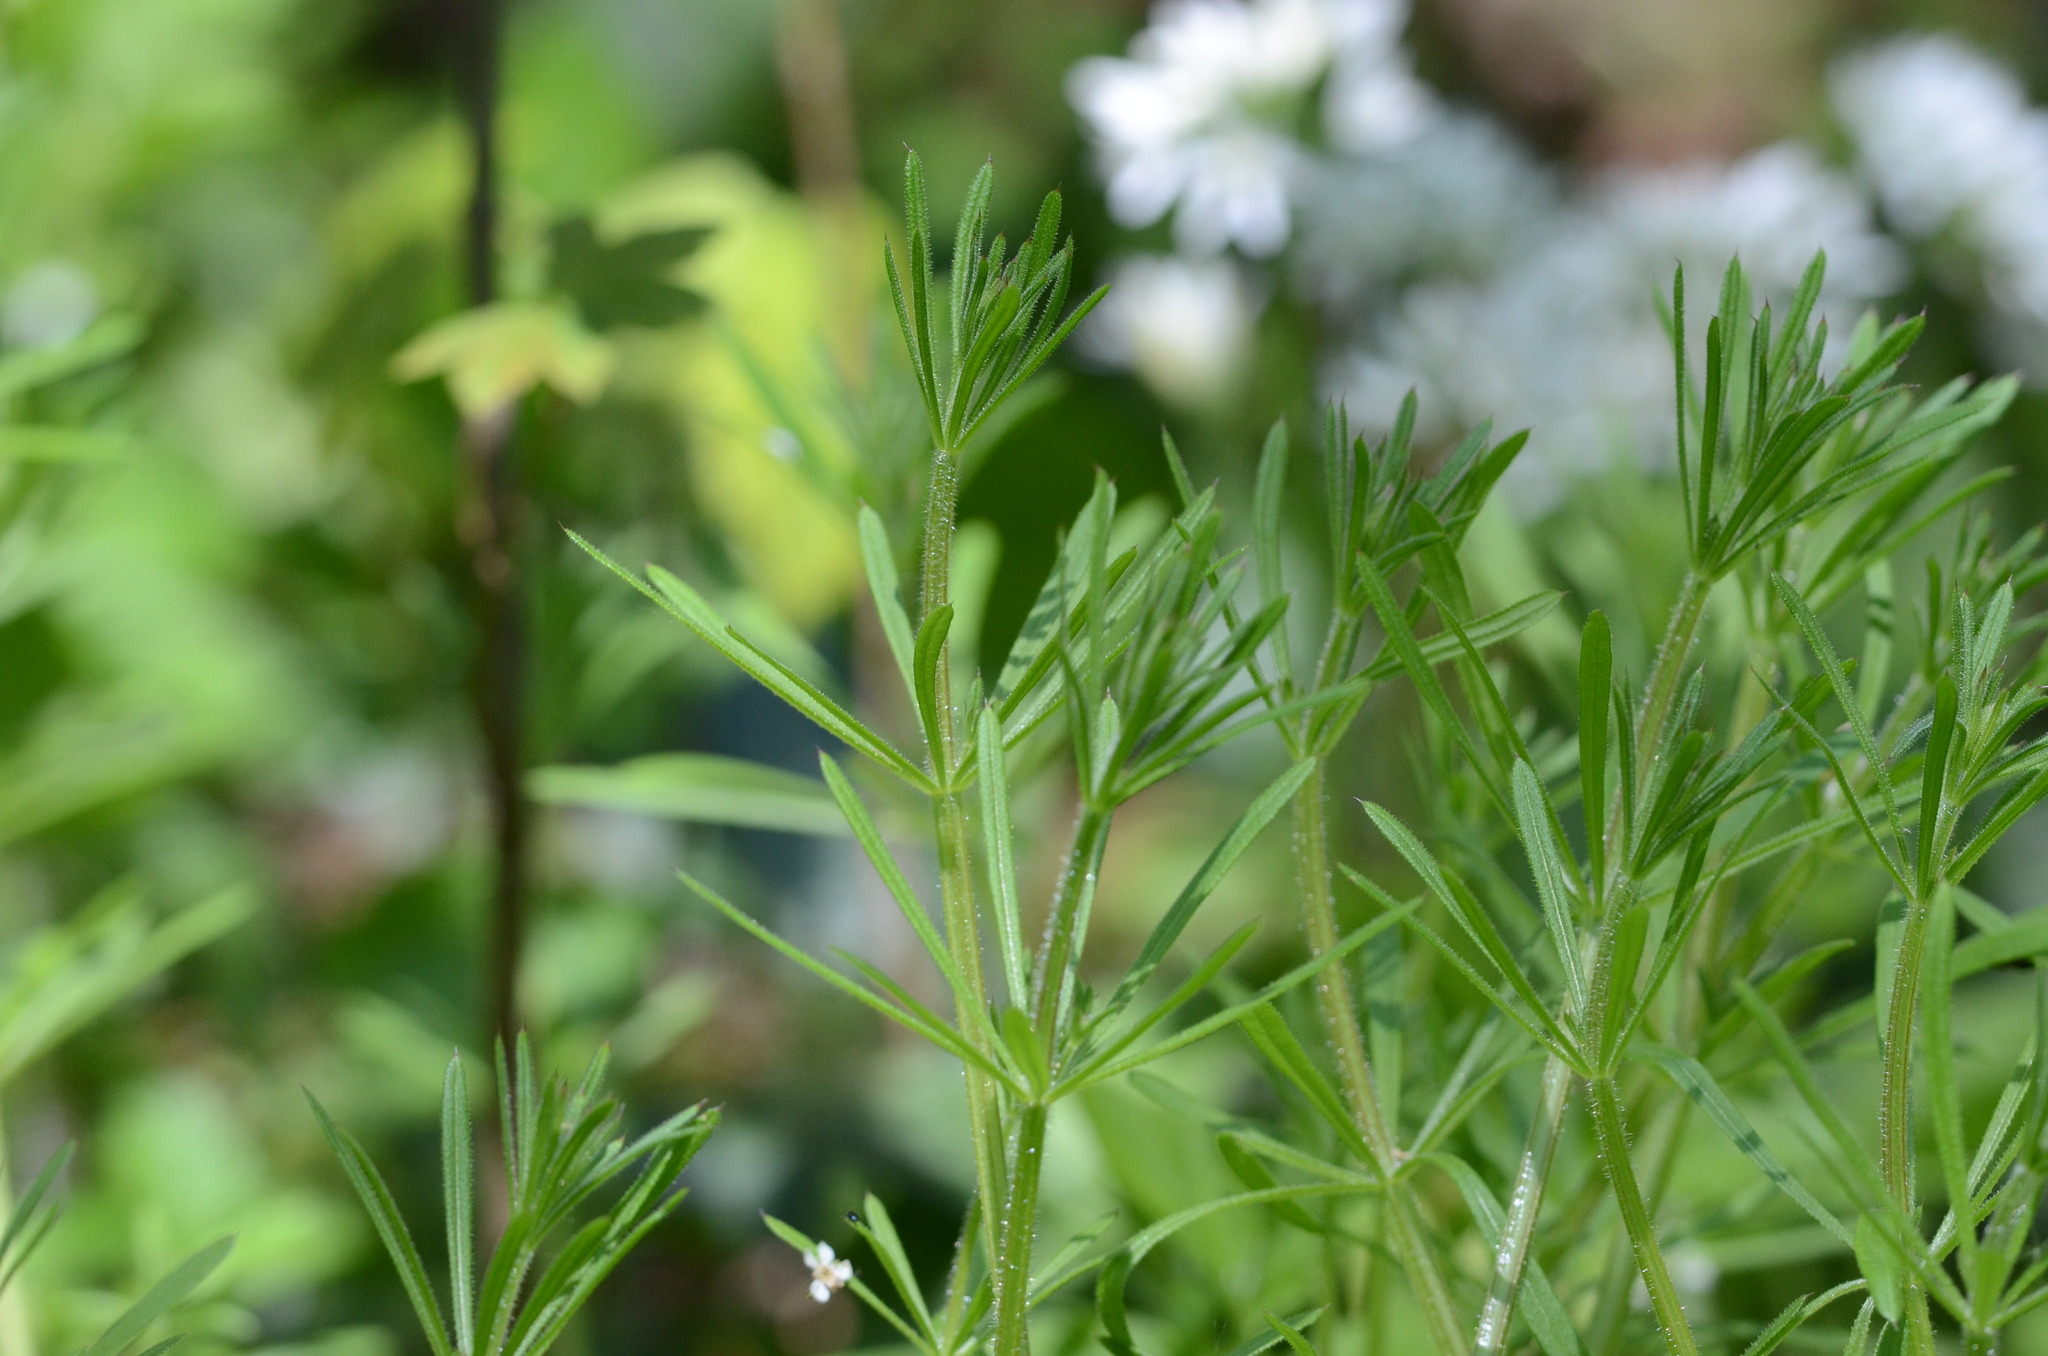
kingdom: Plantae
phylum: Tracheophyta
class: Magnoliopsida
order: Gentianales
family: Rubiaceae
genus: Galium
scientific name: Galium aparine
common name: Cleavers
